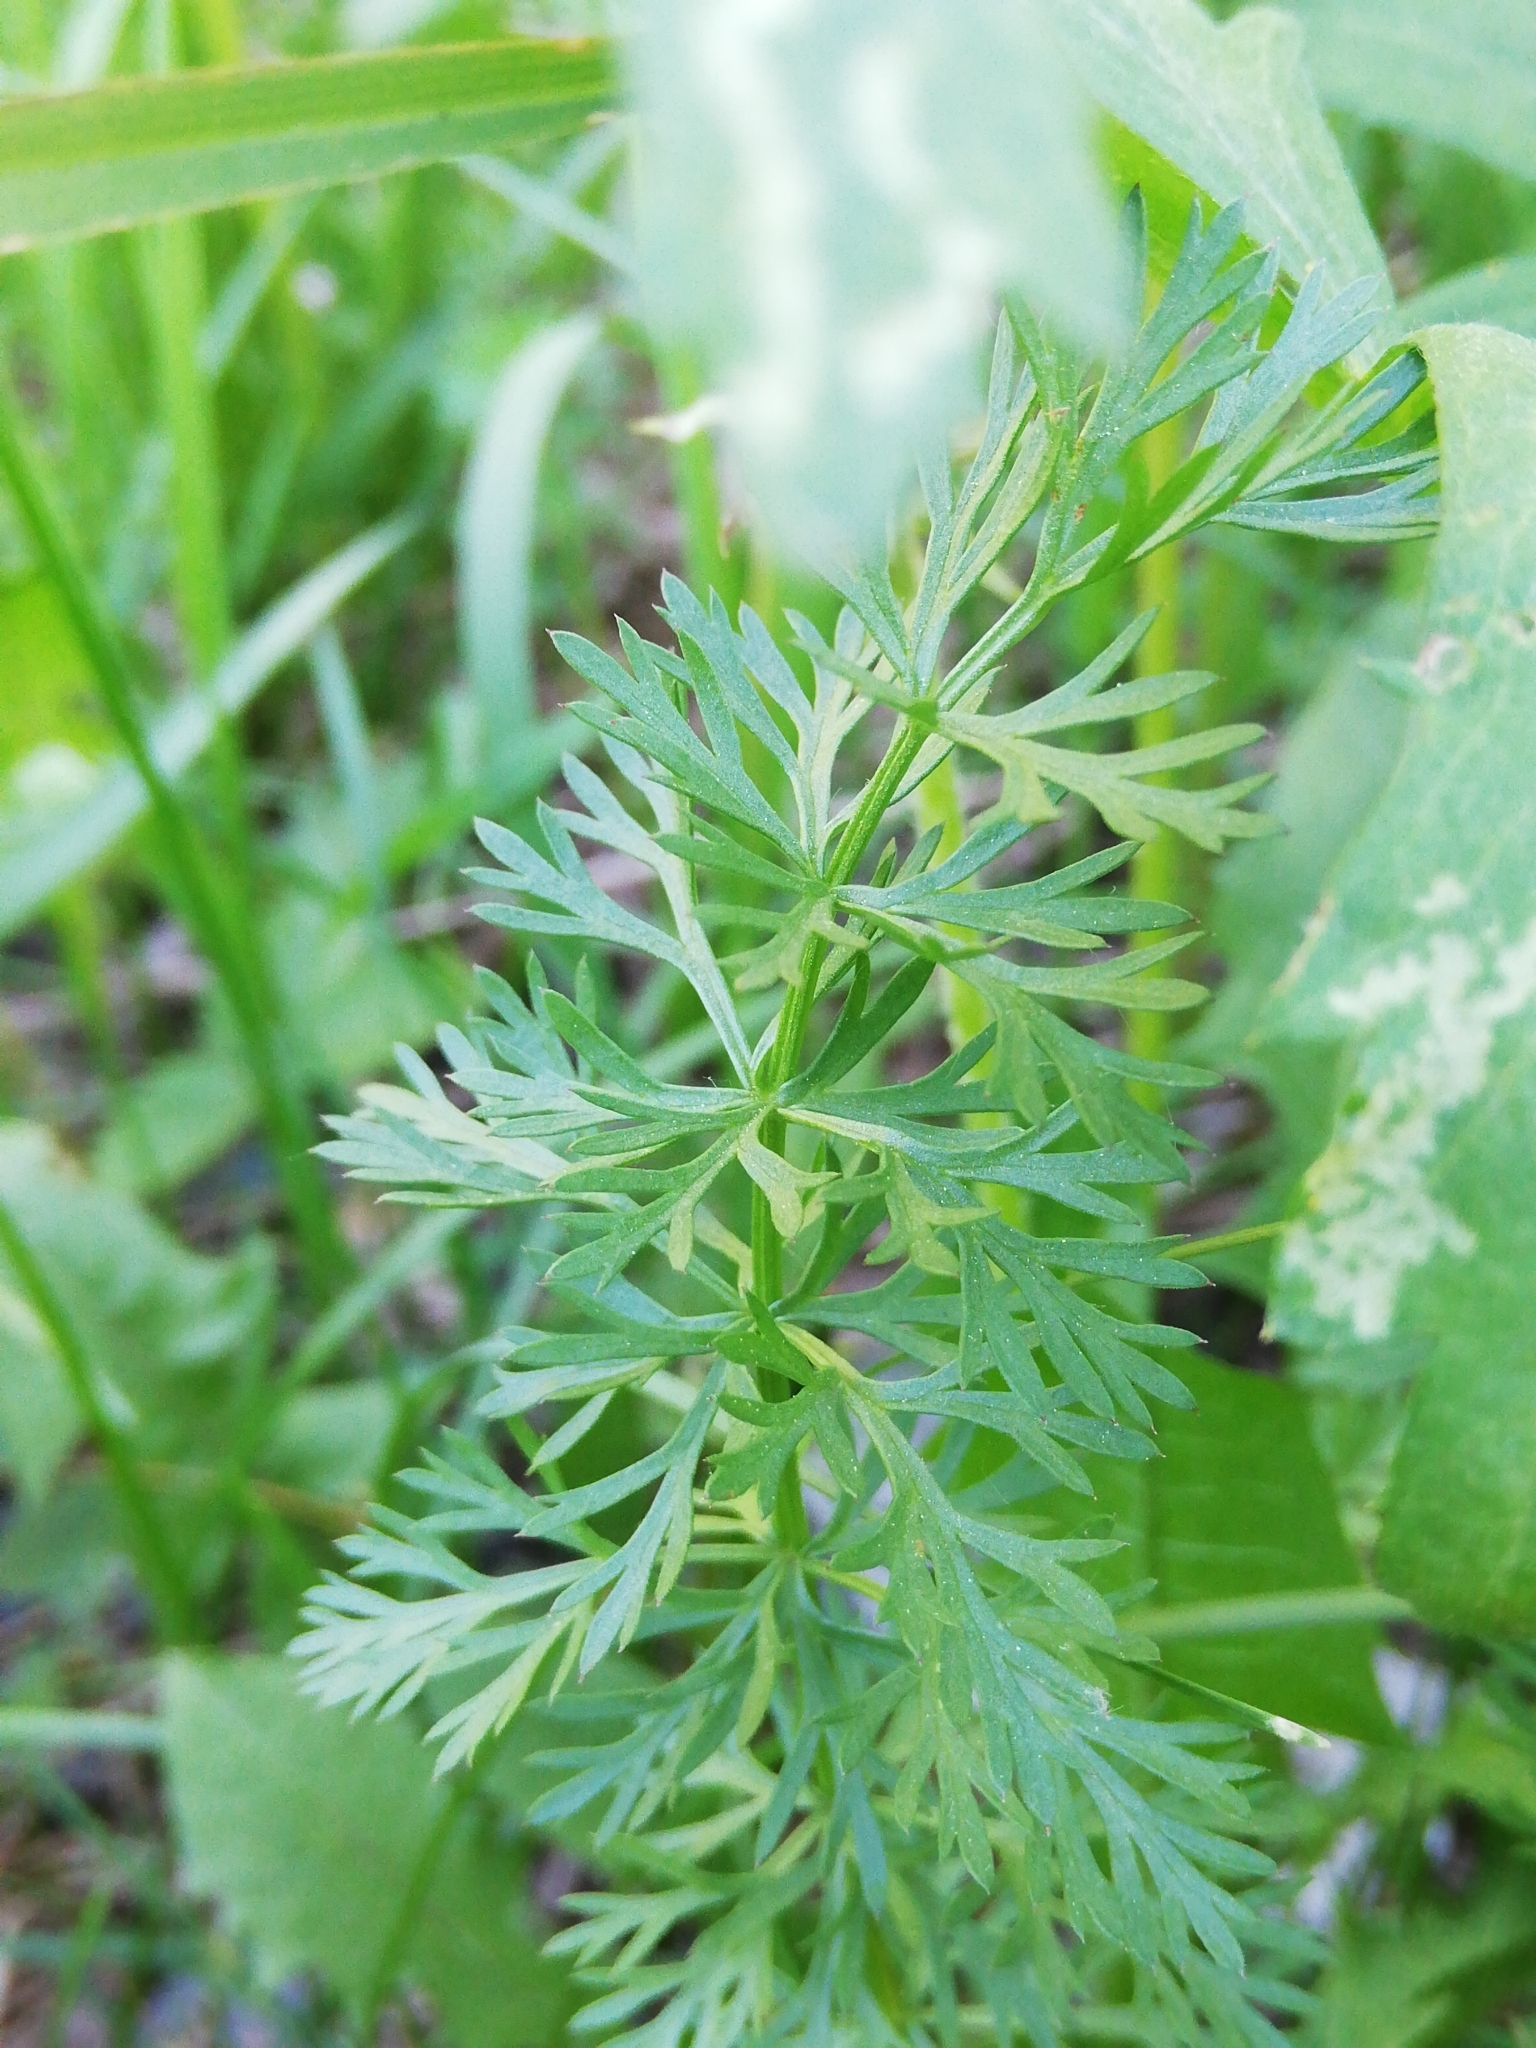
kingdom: Plantae
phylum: Tracheophyta
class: Magnoliopsida
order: Apiales
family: Apiaceae
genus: Carum
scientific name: Carum carvi
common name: Caraway
